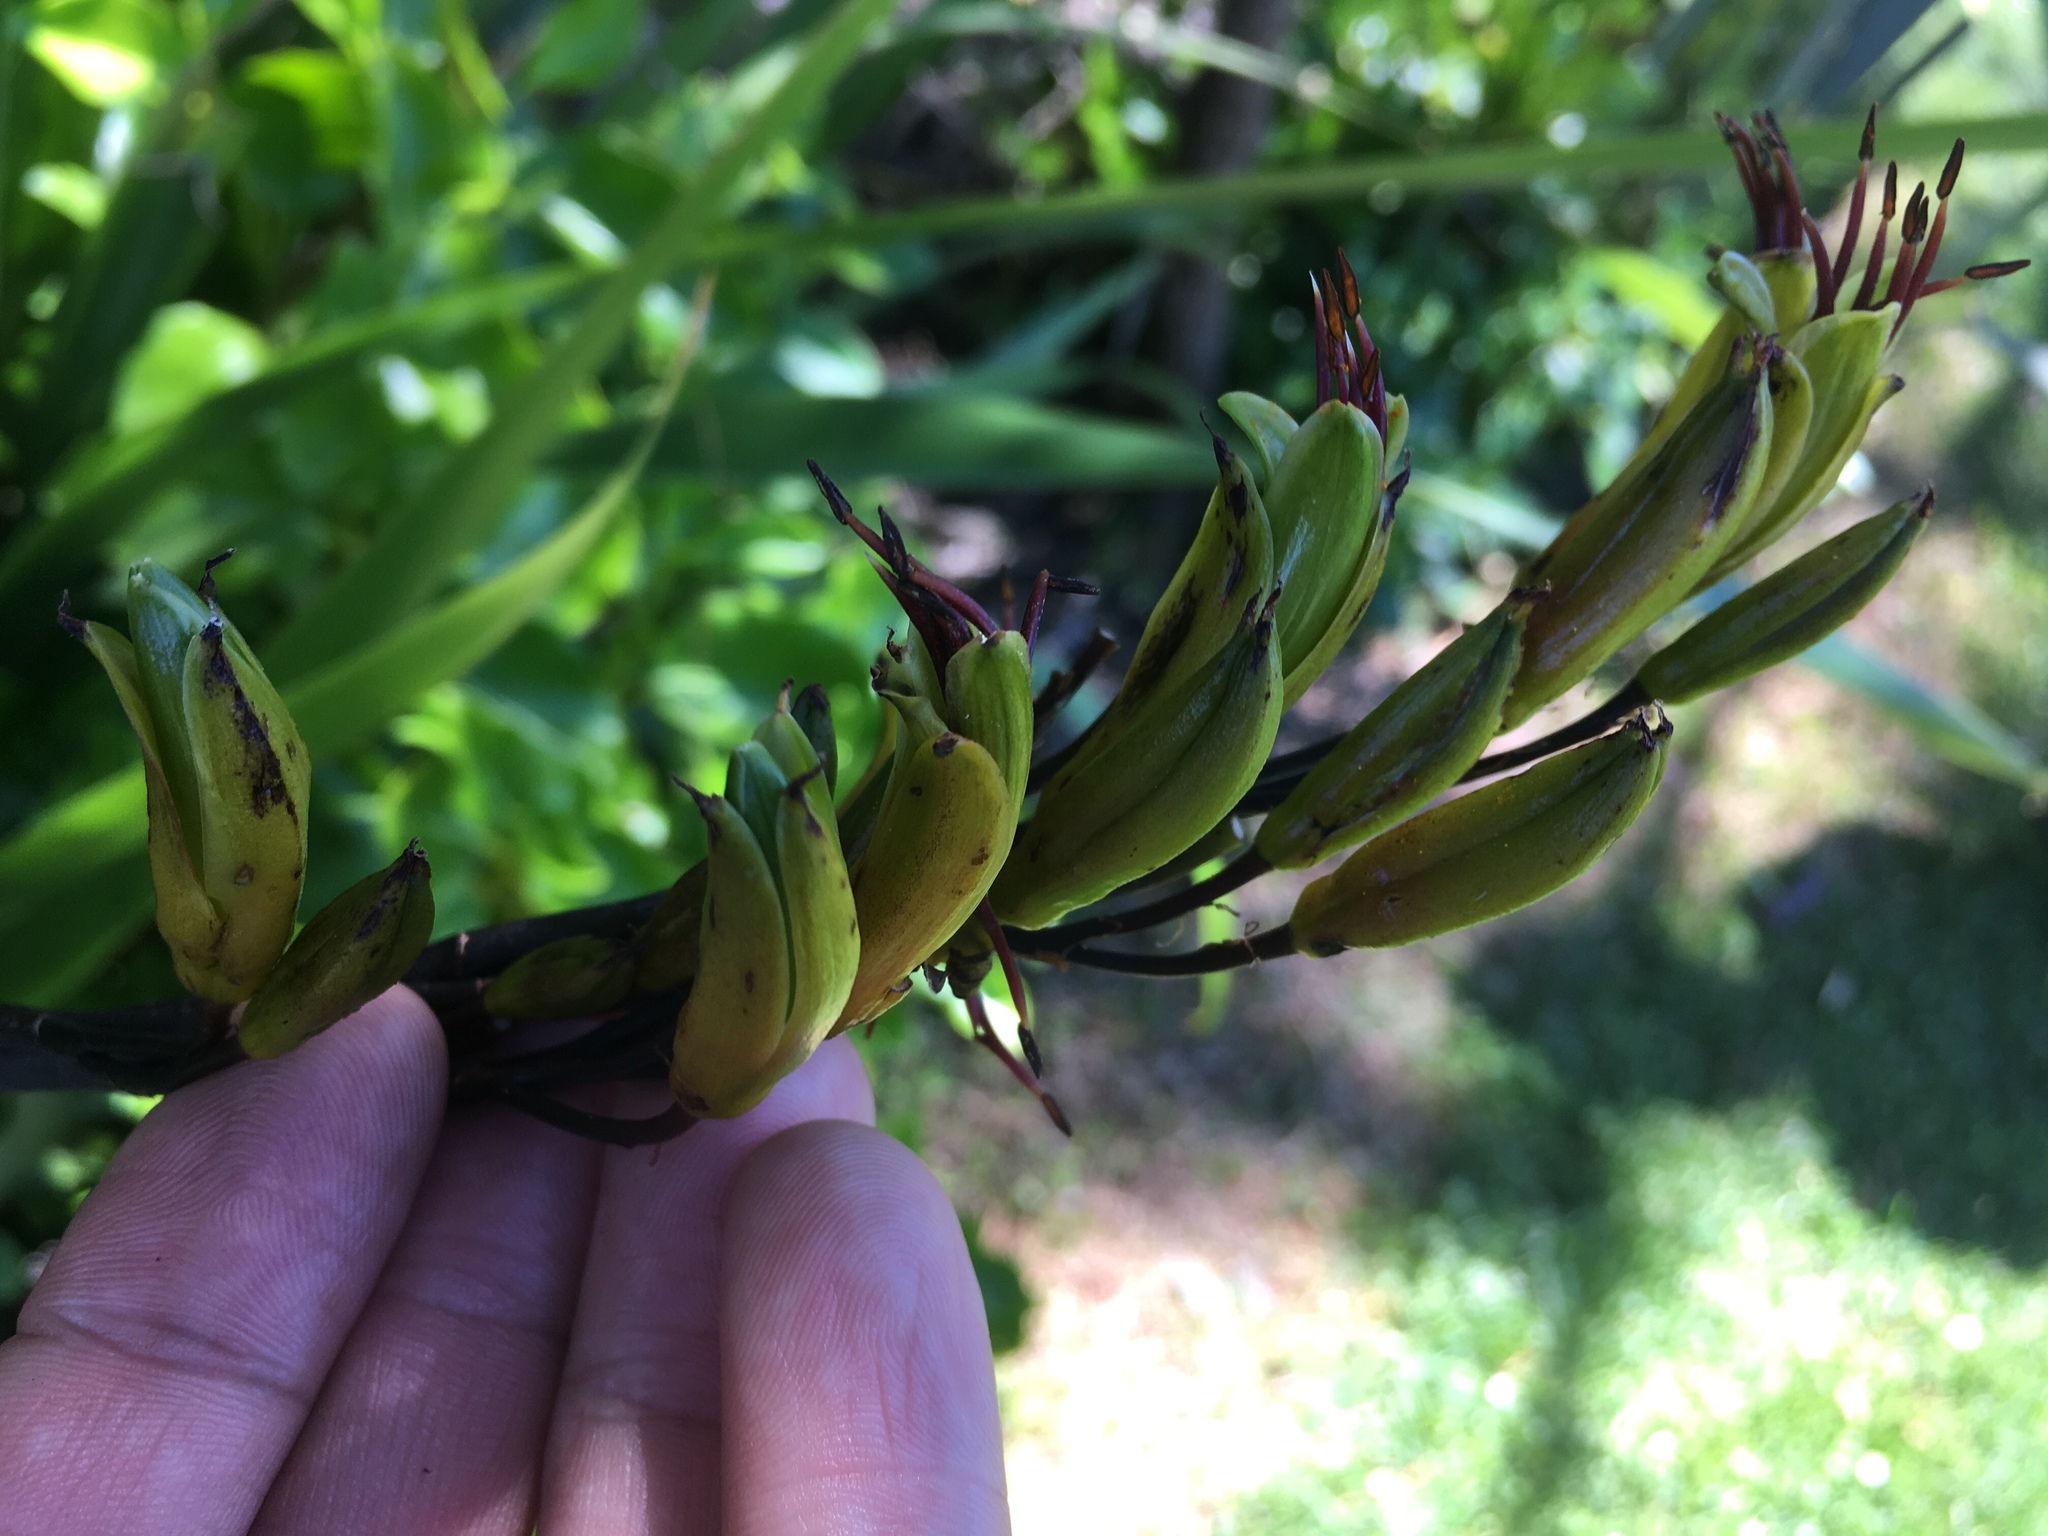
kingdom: Plantae
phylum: Tracheophyta
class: Liliopsida
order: Asparagales
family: Asphodelaceae
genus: Phormium
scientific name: Phormium colensoi
